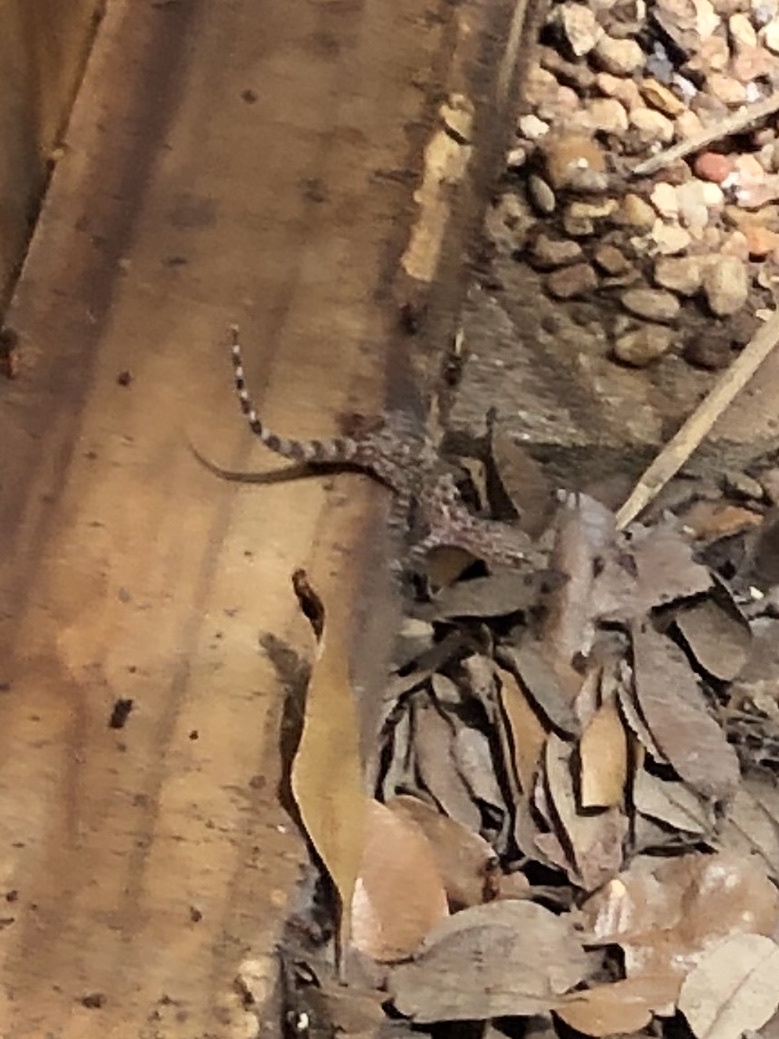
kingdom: Animalia
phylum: Chordata
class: Squamata
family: Gekkonidae
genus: Hemidactylus
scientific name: Hemidactylus turcicus
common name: Turkish gecko
